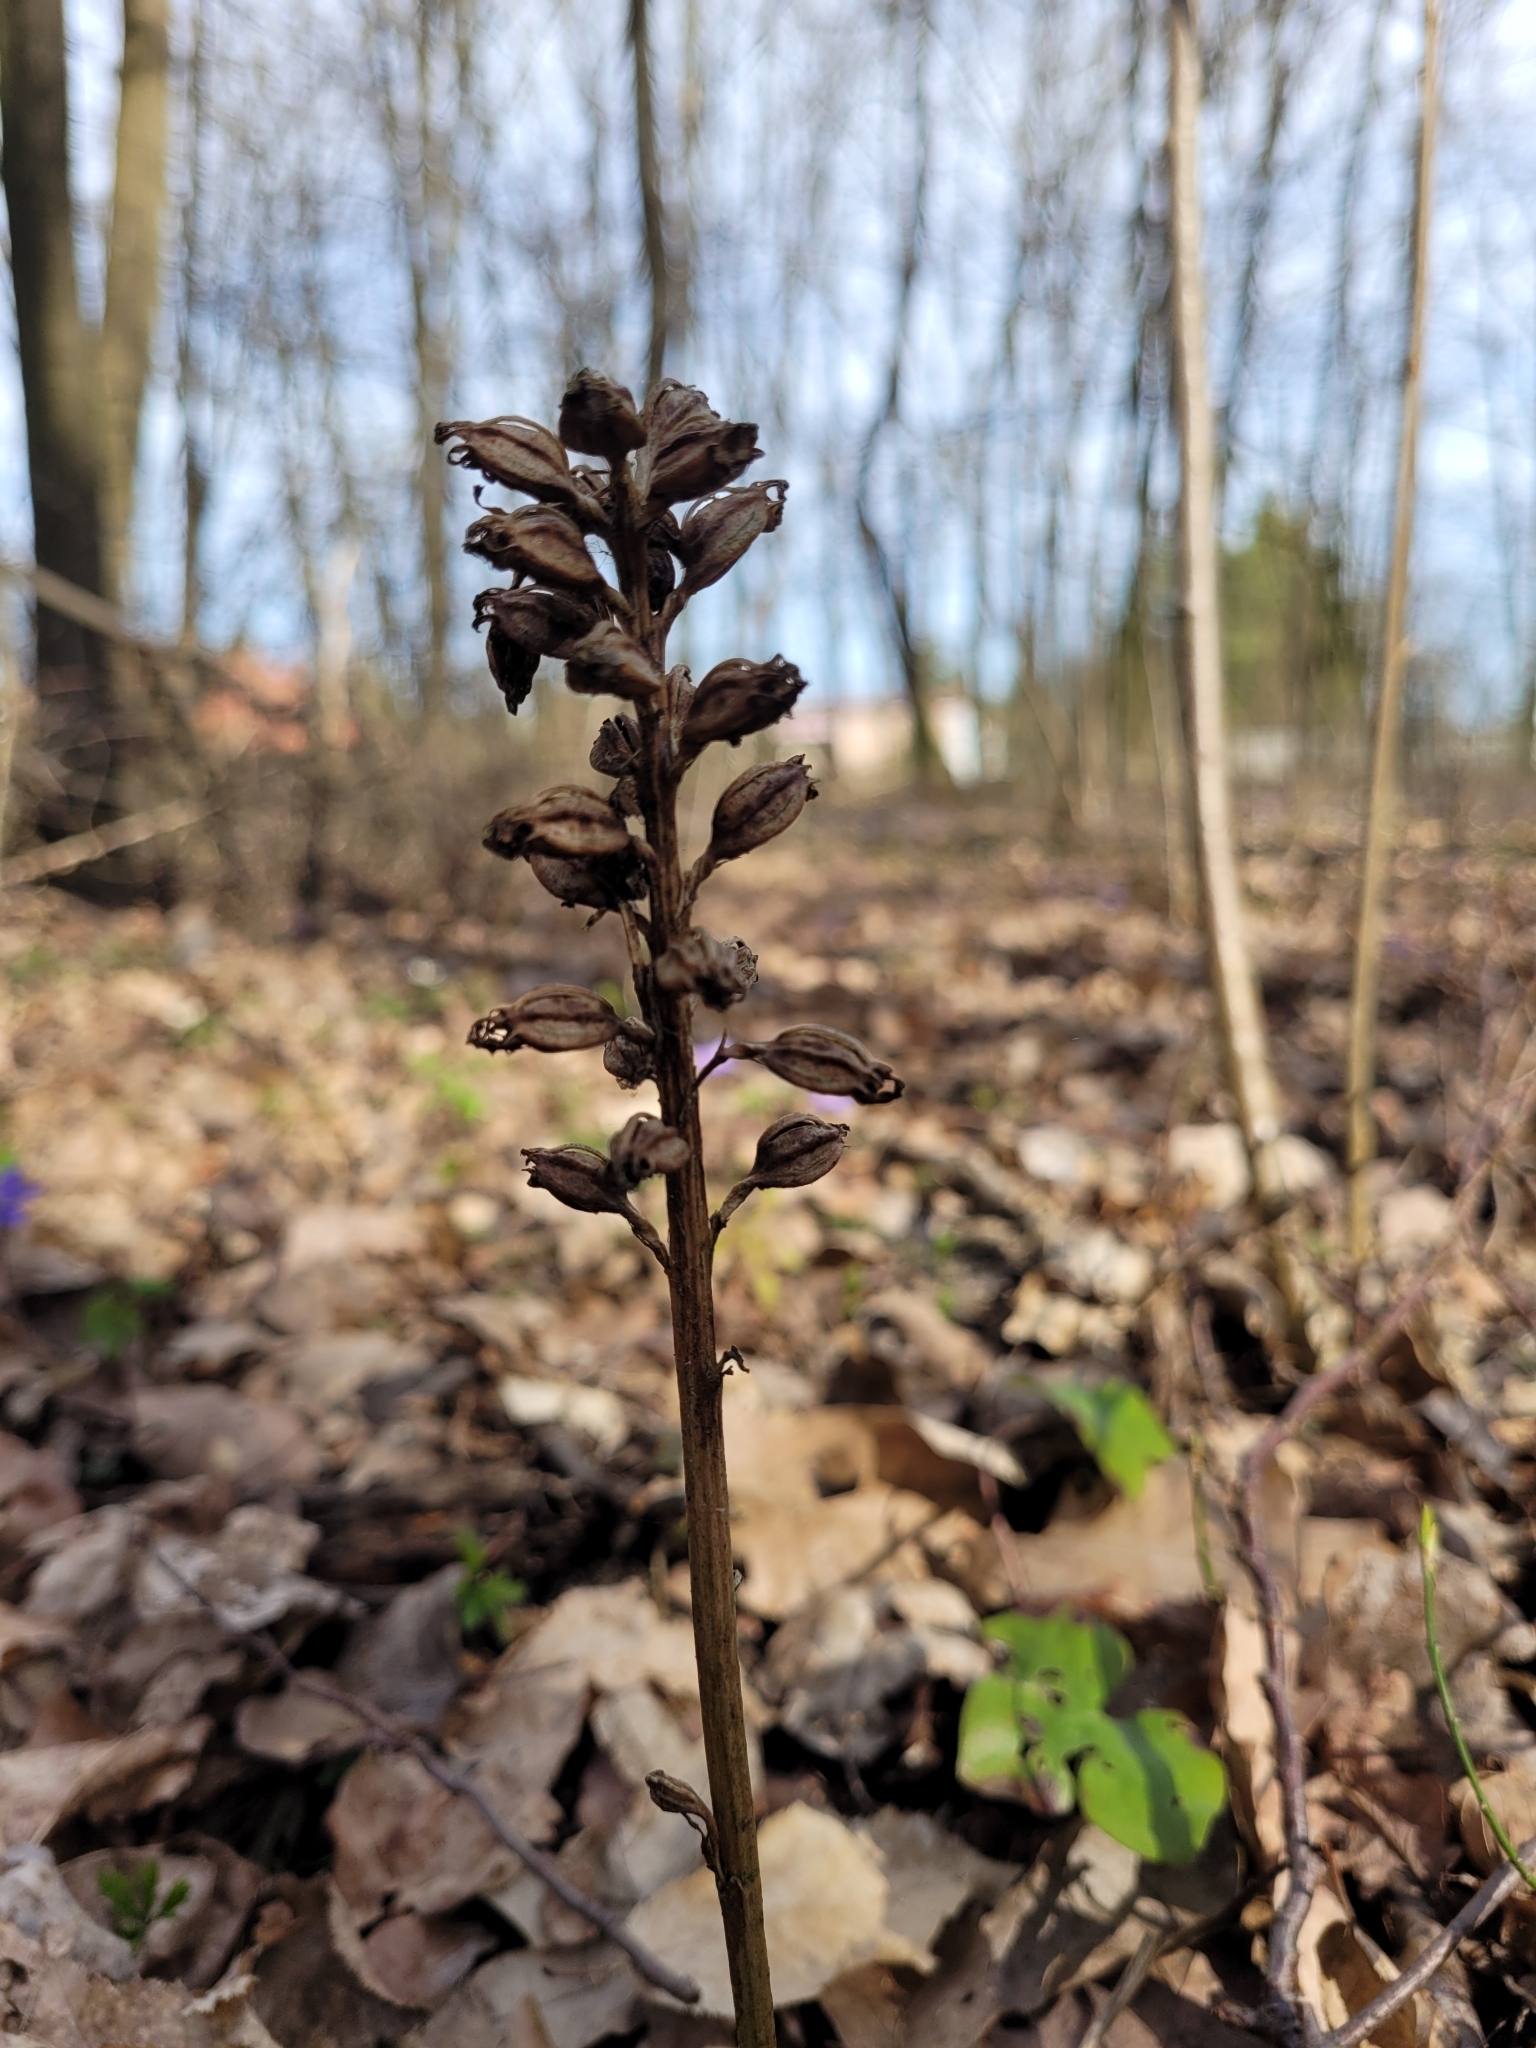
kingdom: Plantae
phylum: Tracheophyta
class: Liliopsida
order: Asparagales
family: Orchidaceae
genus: Neottia
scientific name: Neottia nidus-avis
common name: Bird's-nest orchid
